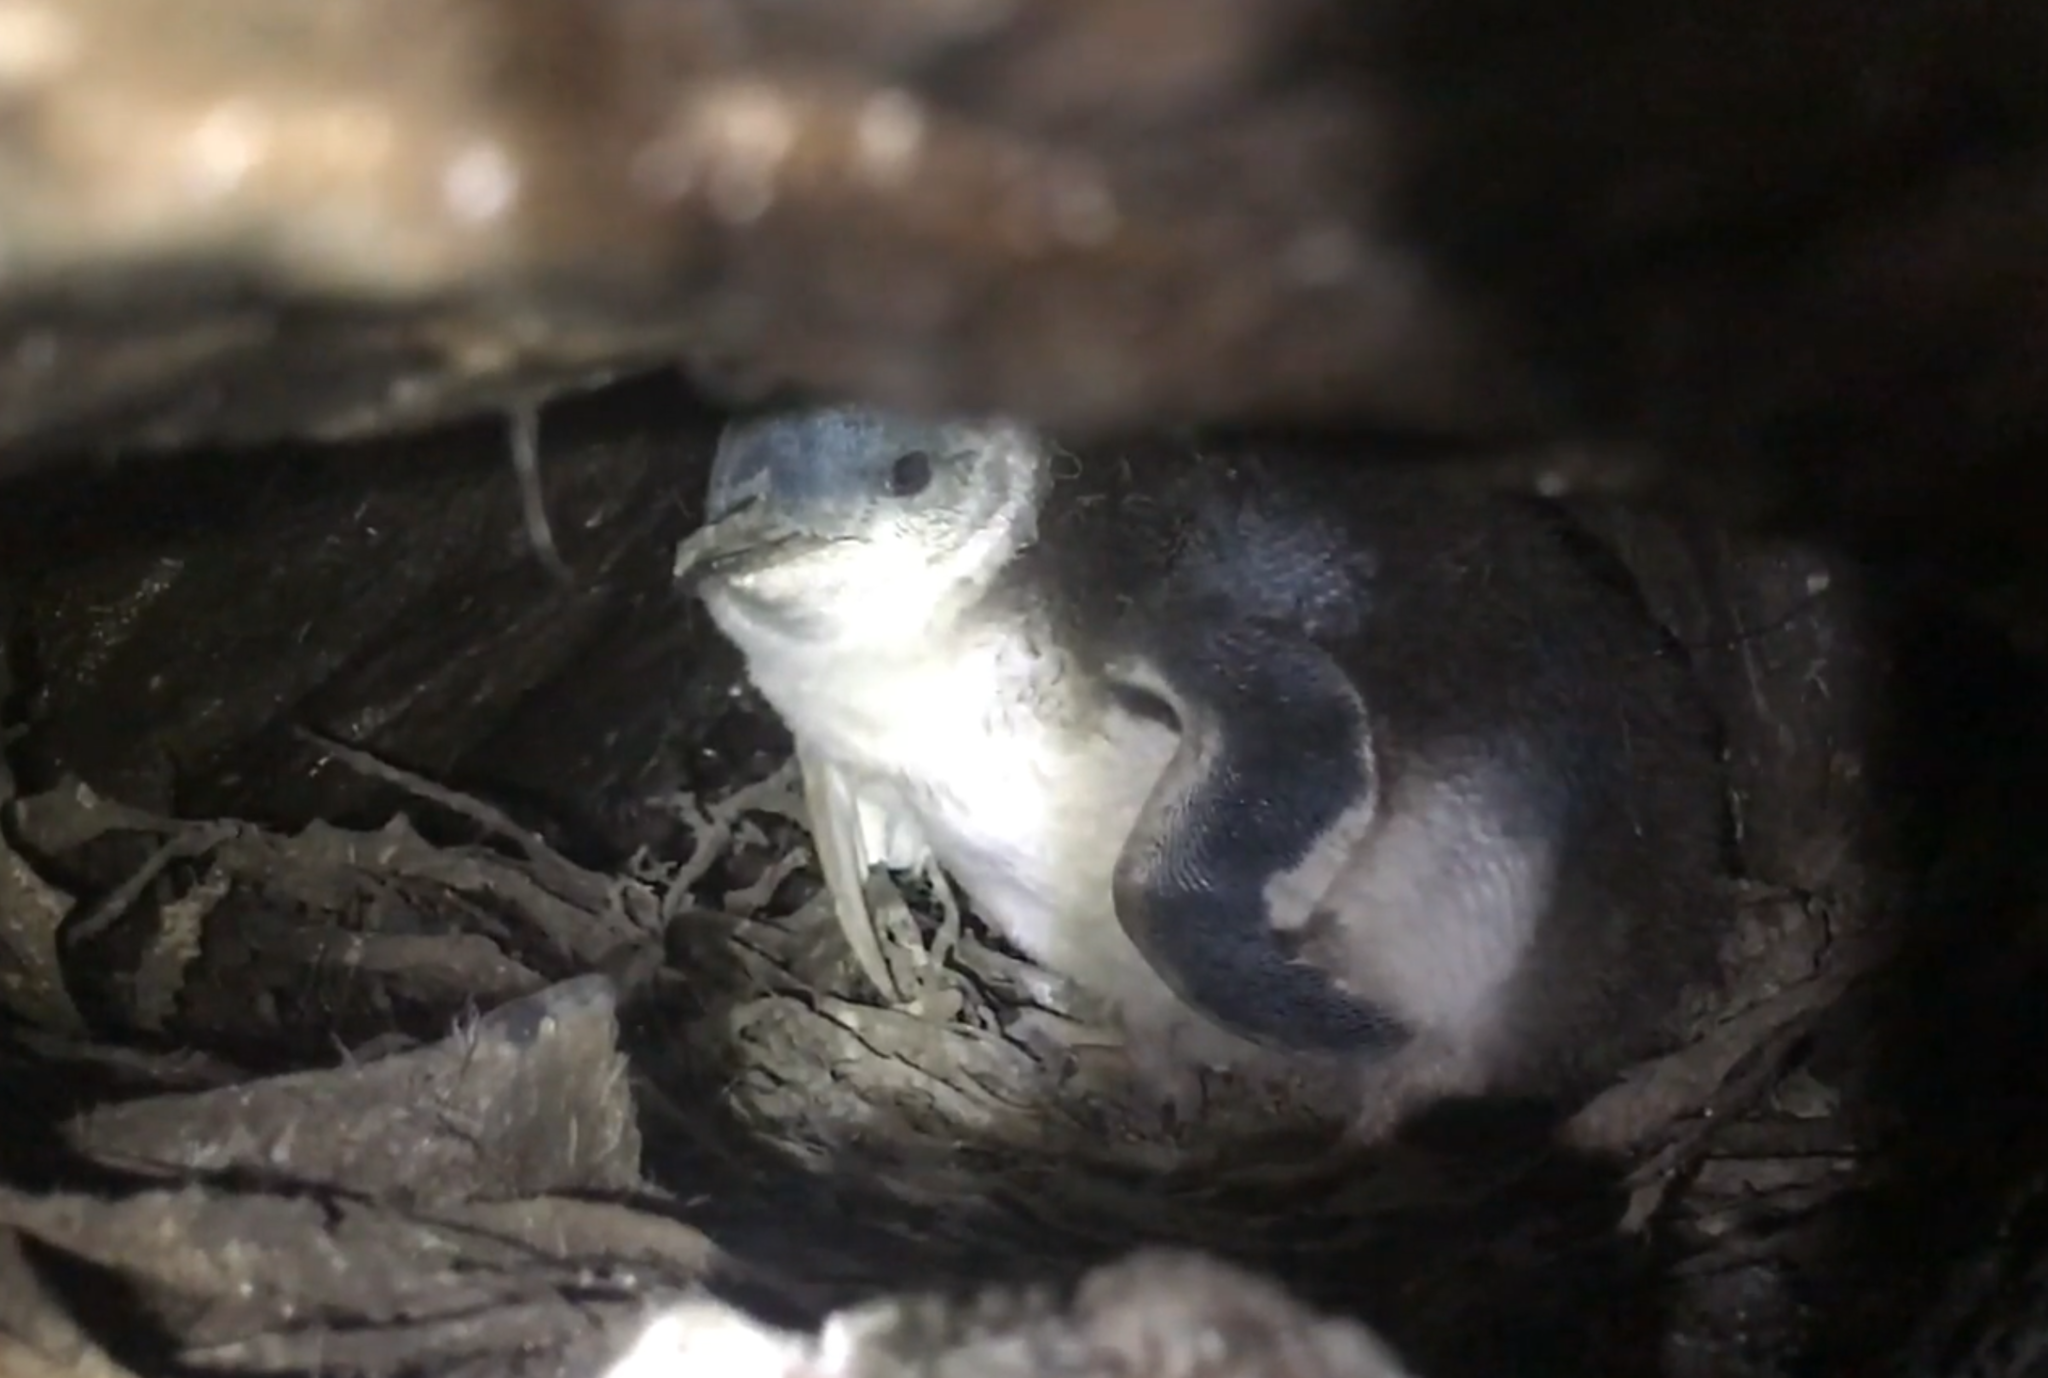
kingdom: Animalia
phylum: Chordata
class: Aves
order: Sphenisciformes
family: Spheniscidae
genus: Eudyptula
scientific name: Eudyptula minor
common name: Little penguin
